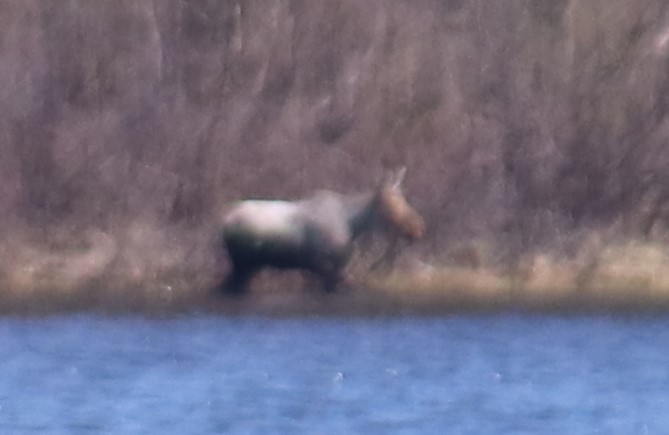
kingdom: Animalia
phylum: Chordata
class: Mammalia
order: Artiodactyla
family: Cervidae
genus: Alces
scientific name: Alces alces
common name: Moose
